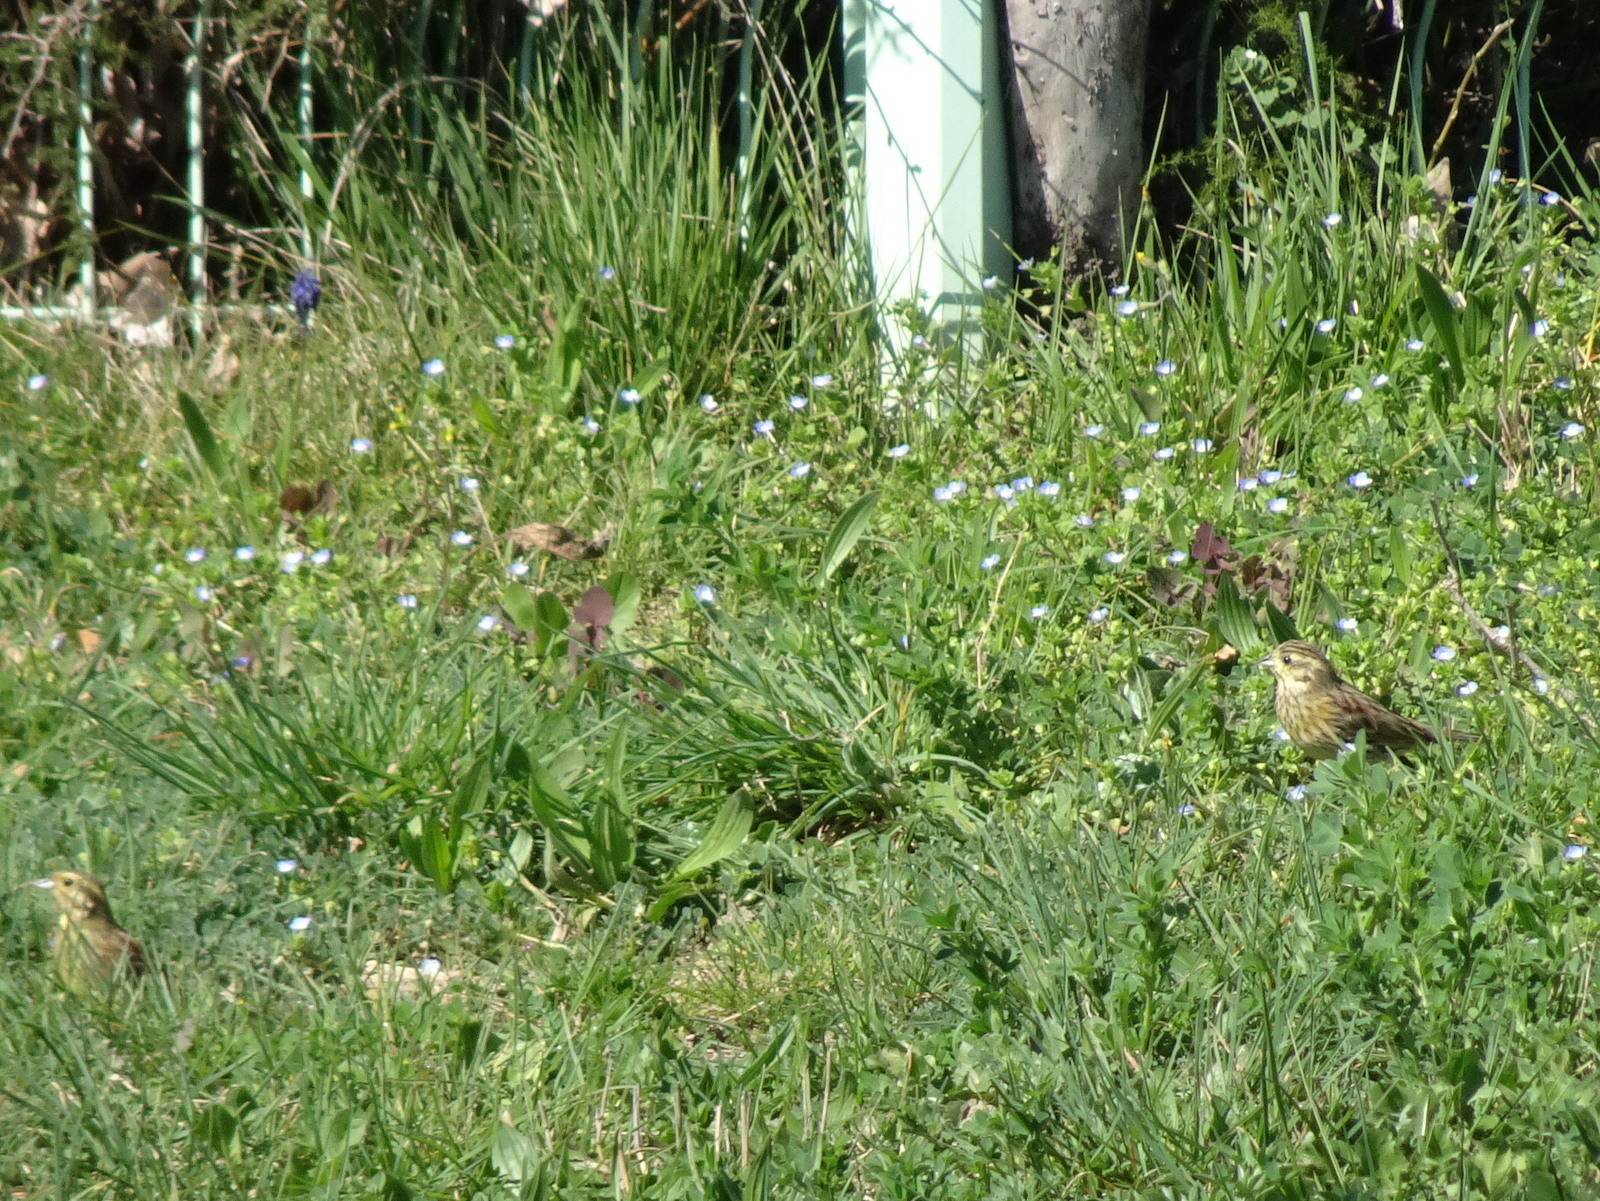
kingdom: Animalia
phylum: Chordata
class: Aves
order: Passeriformes
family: Emberizidae
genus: Emberiza
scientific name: Emberiza cirlus
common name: Cirl bunting
